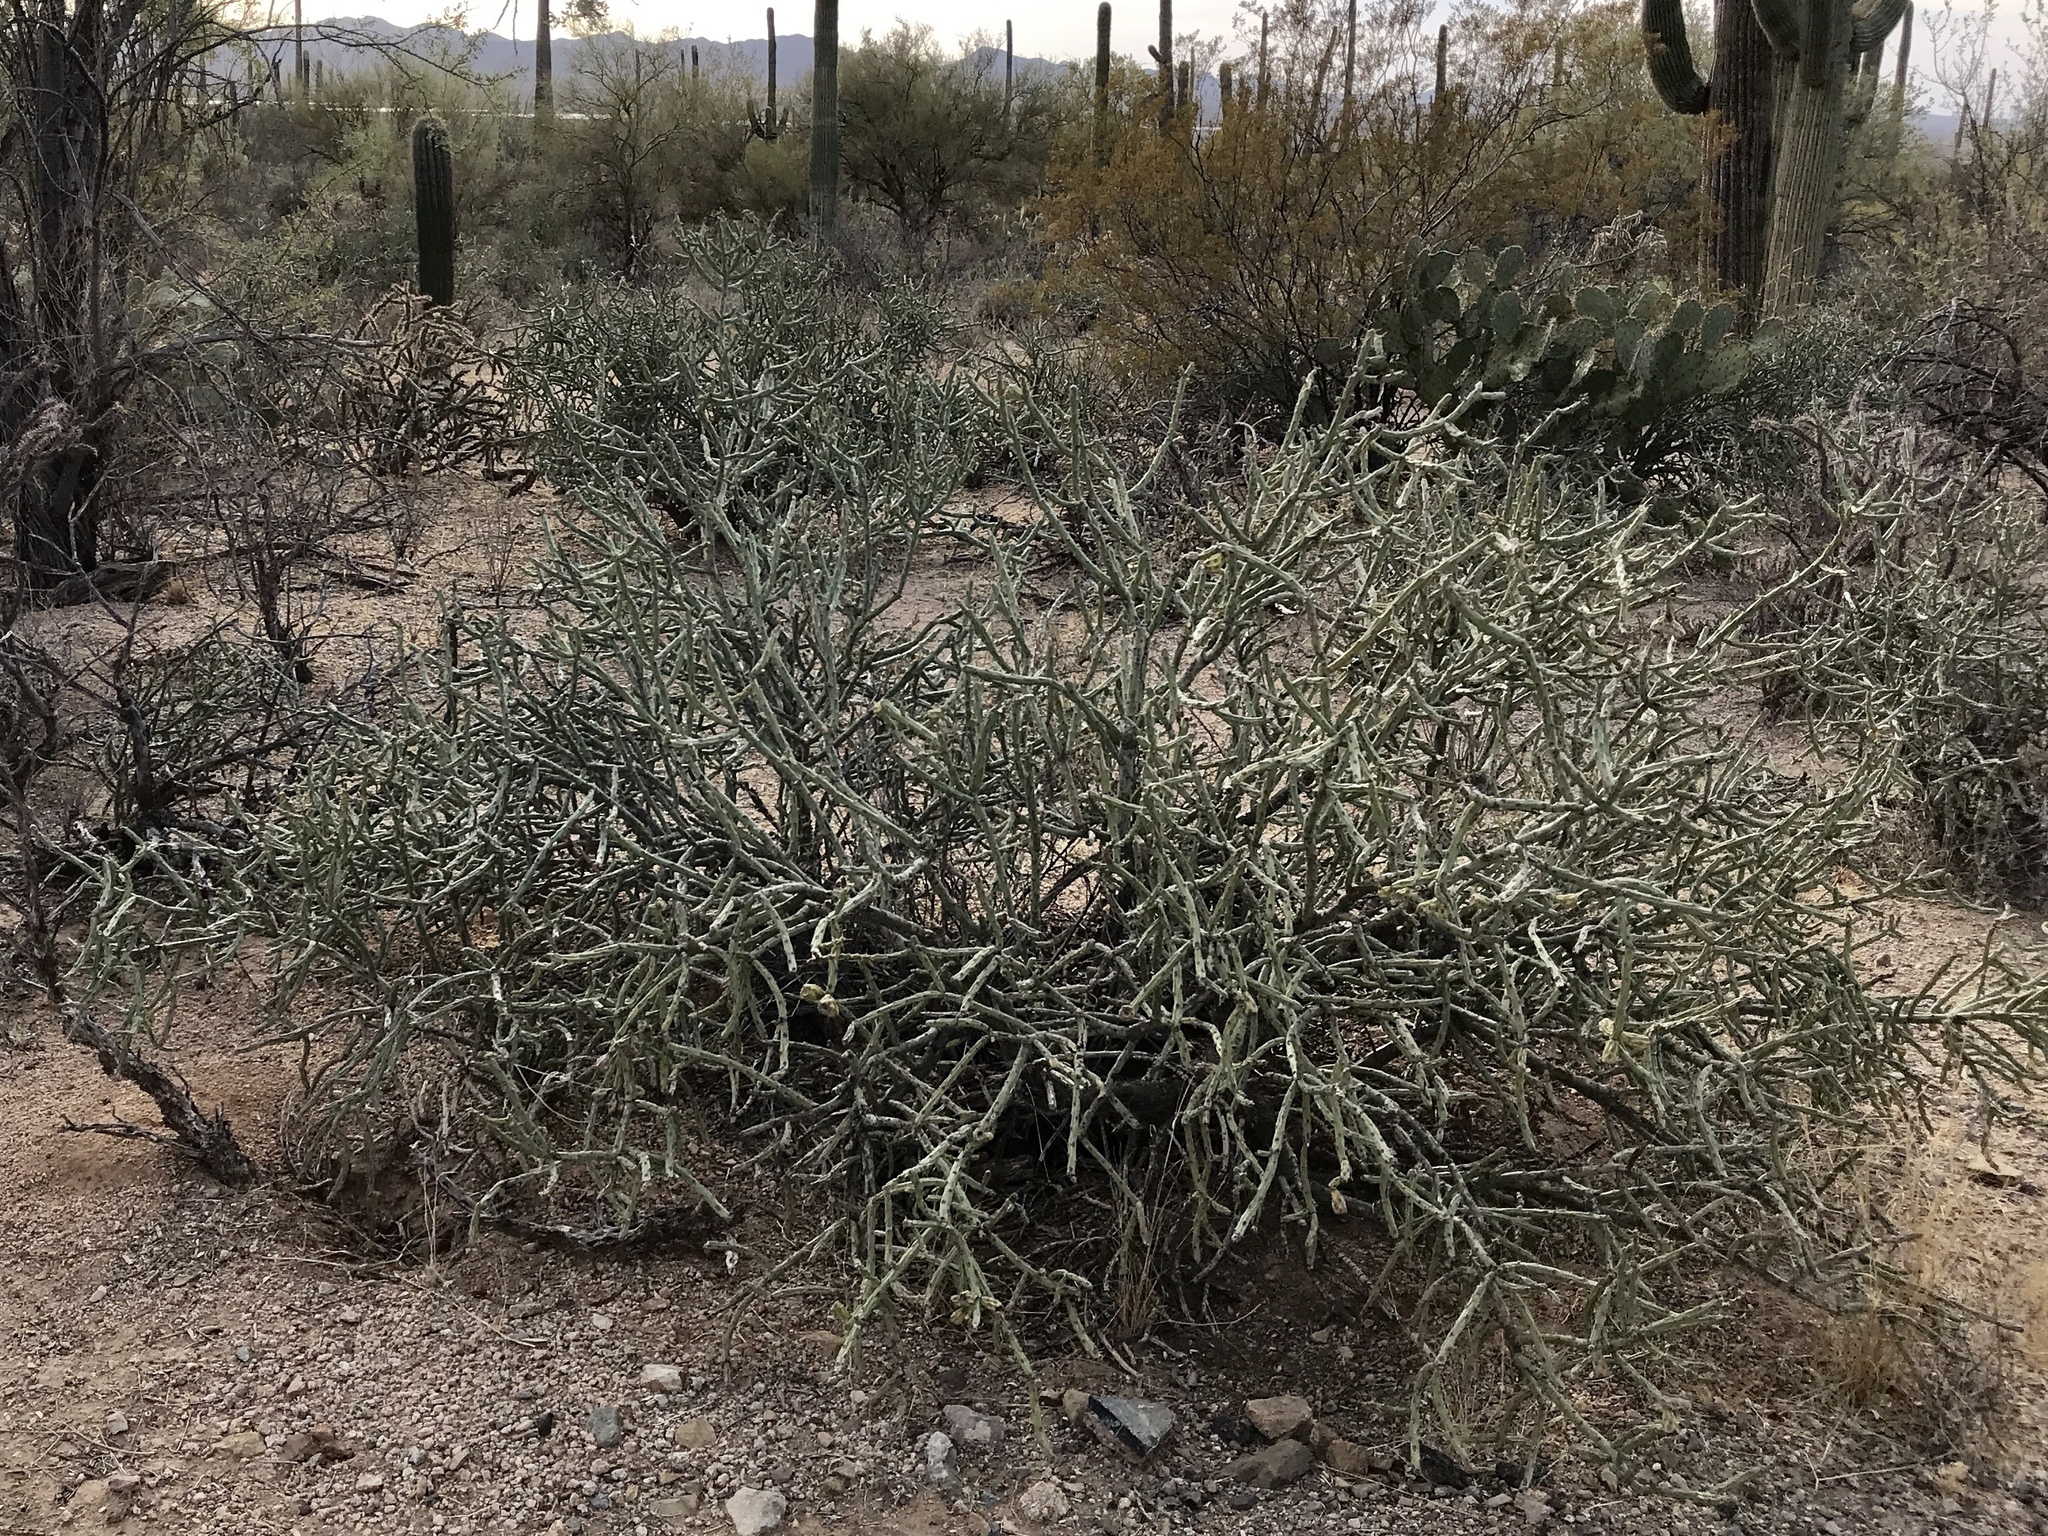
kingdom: Plantae
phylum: Tracheophyta
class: Magnoliopsida
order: Caryophyllales
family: Cactaceae
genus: Cylindropuntia
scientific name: Cylindropuntia arbuscula
